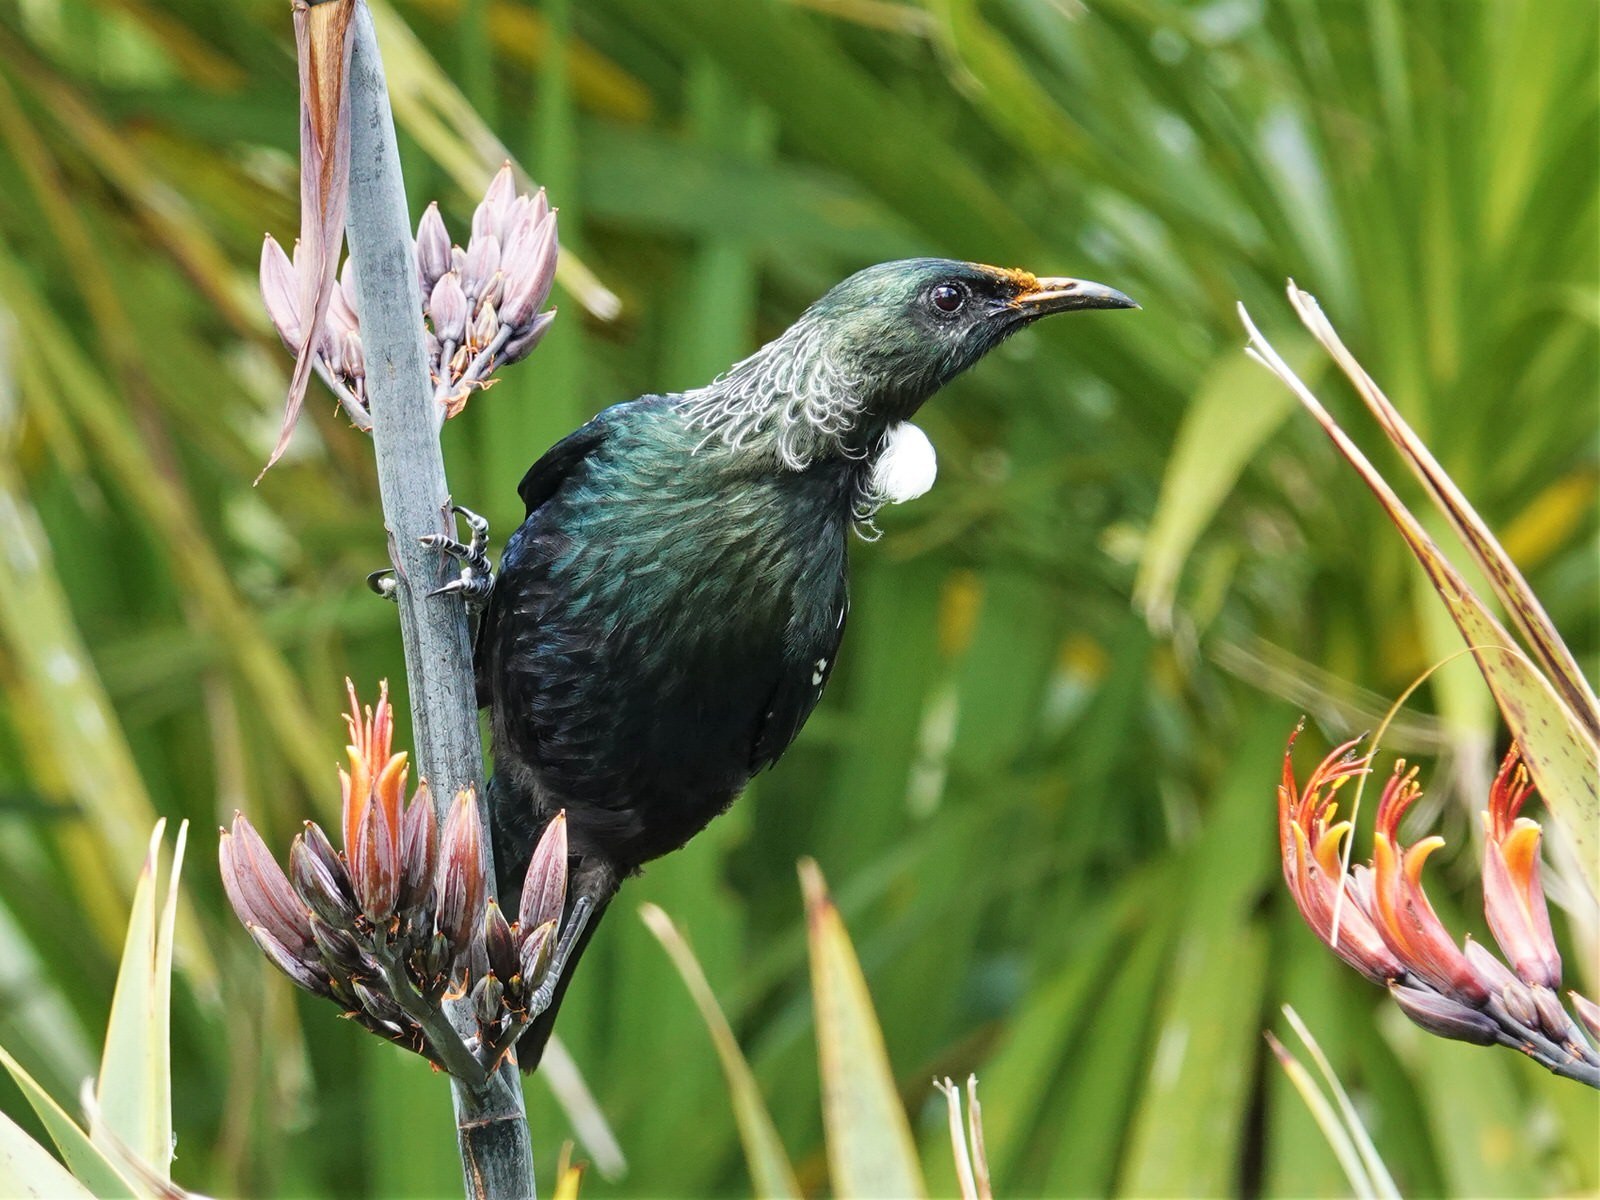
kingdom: Animalia
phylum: Chordata
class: Aves
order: Passeriformes
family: Meliphagidae
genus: Prosthemadera
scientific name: Prosthemadera novaeseelandiae
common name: Tui
